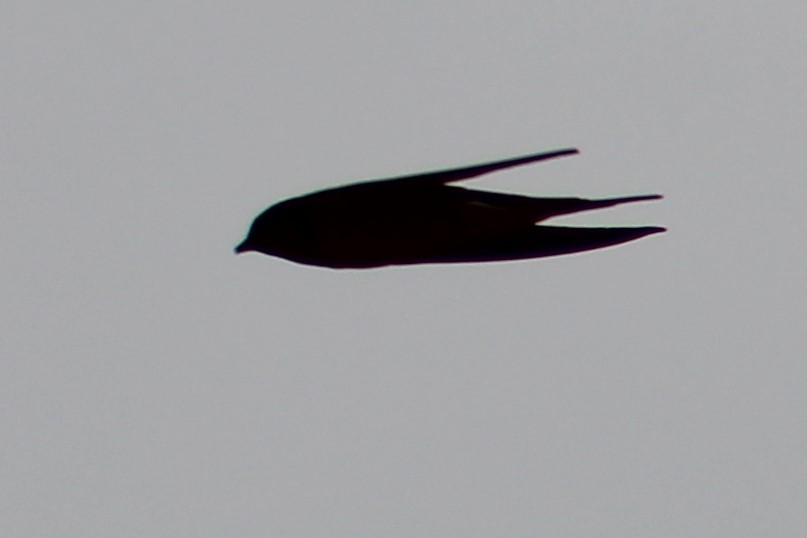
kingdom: Animalia
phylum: Chordata
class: Aves
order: Passeriformes
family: Hirundinidae
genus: Hirundo
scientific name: Hirundo rustica
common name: Barn swallow
